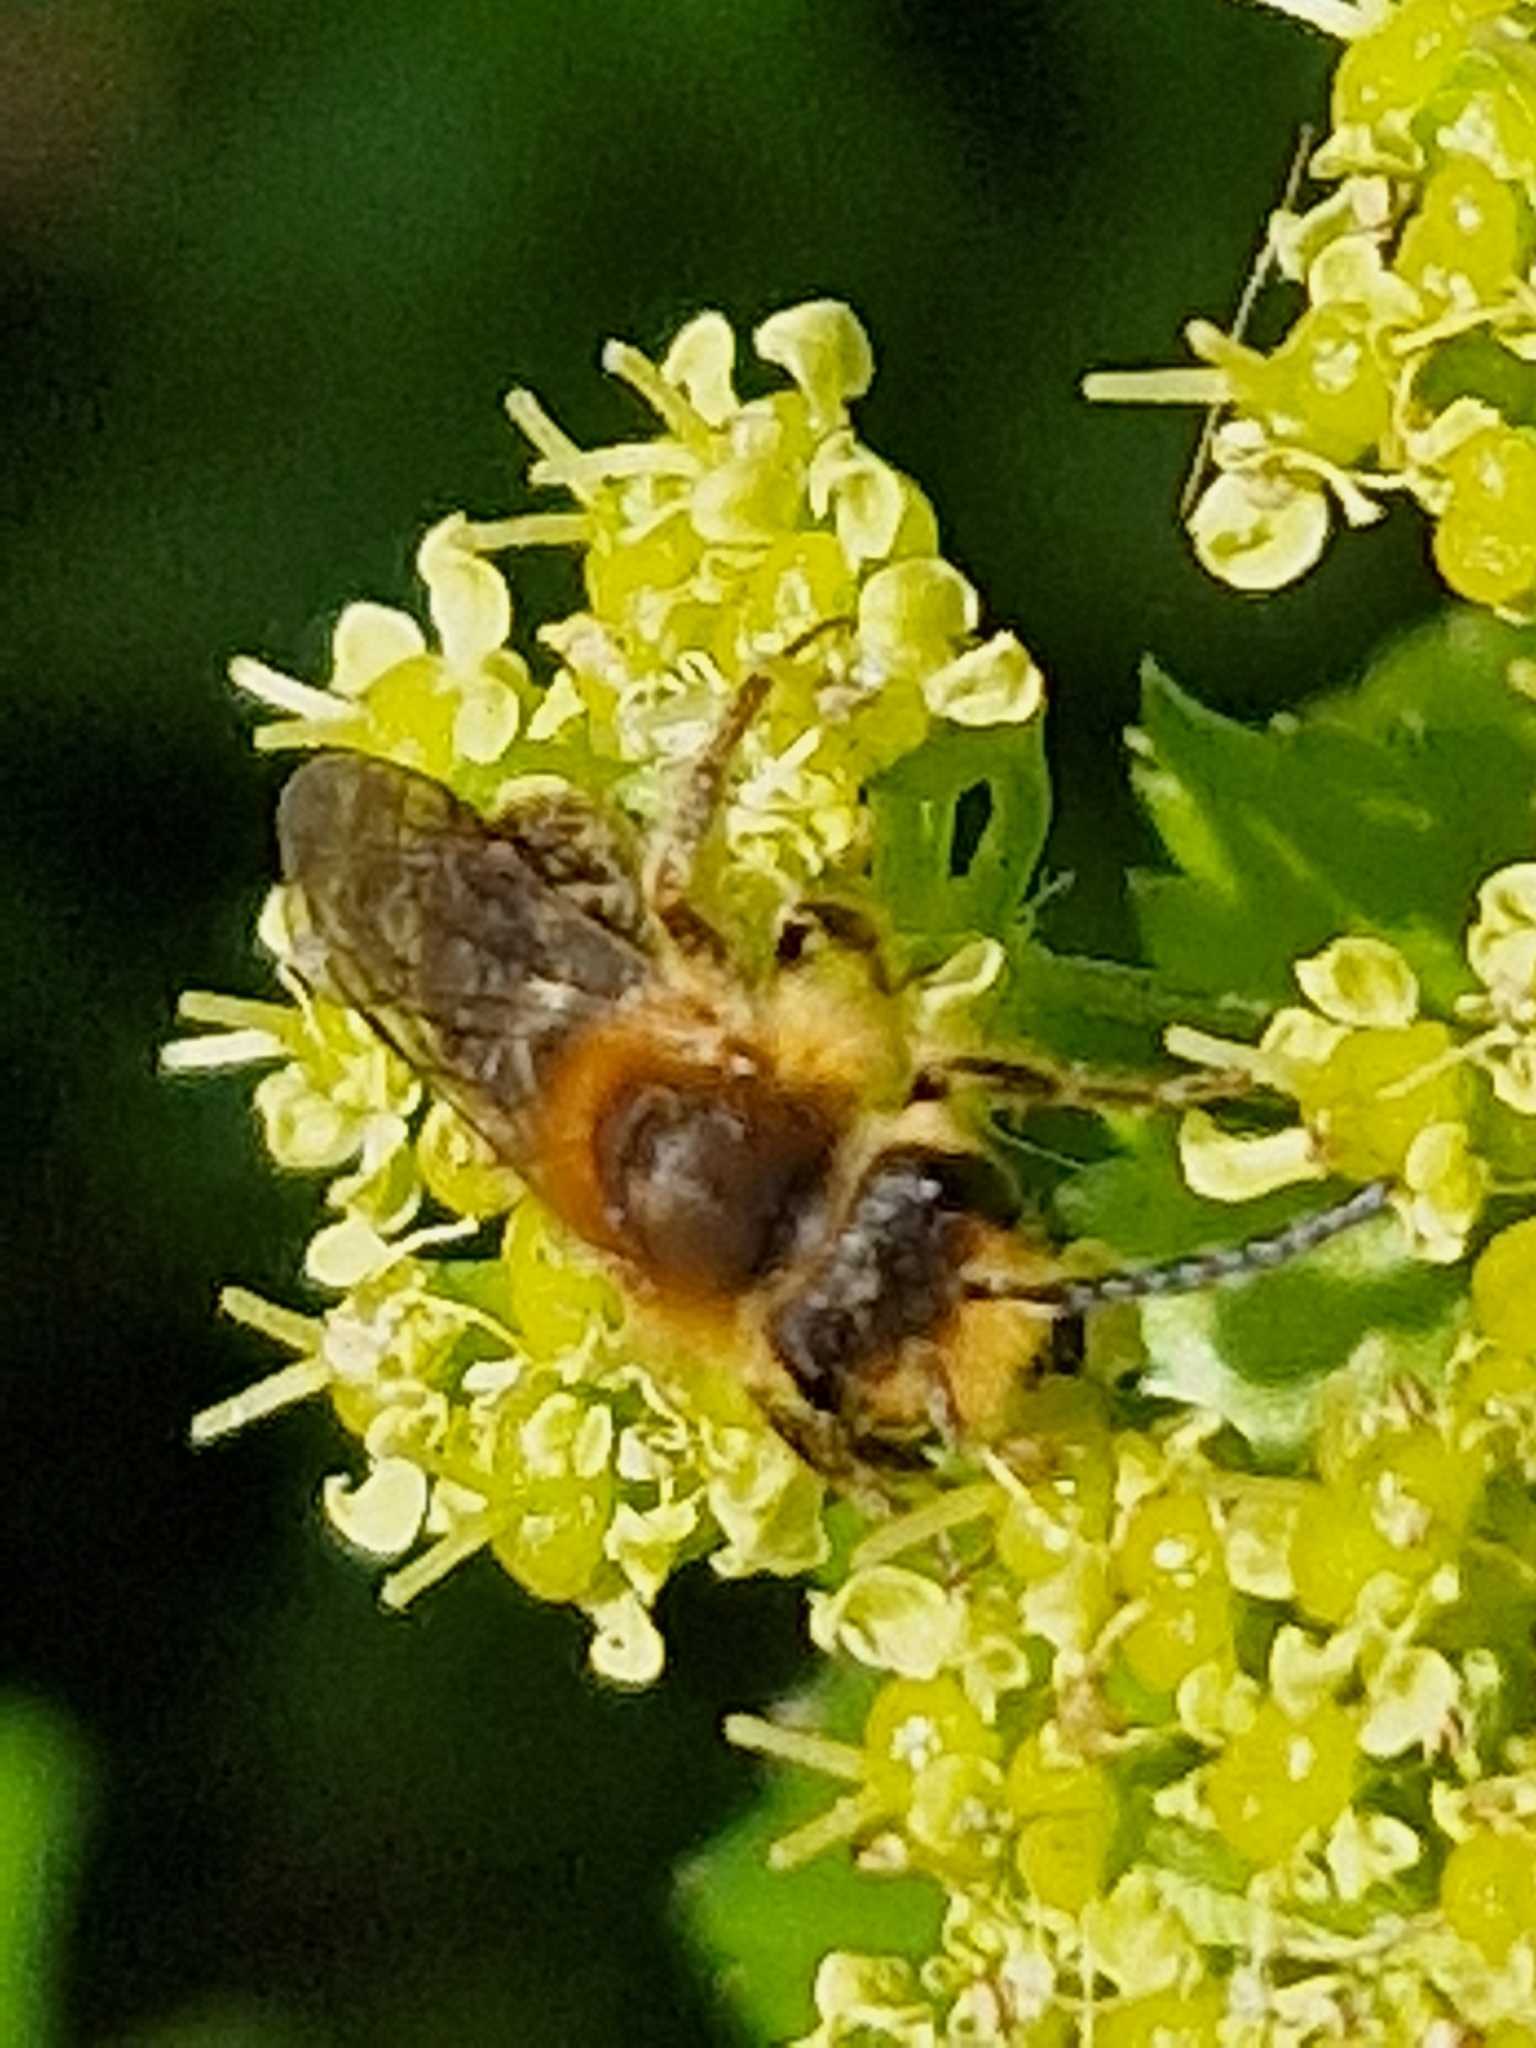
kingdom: Animalia
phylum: Arthropoda
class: Insecta
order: Hymenoptera
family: Andrenidae
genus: Andrena
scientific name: Andrena haemorrhoa
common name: Early mining bee
